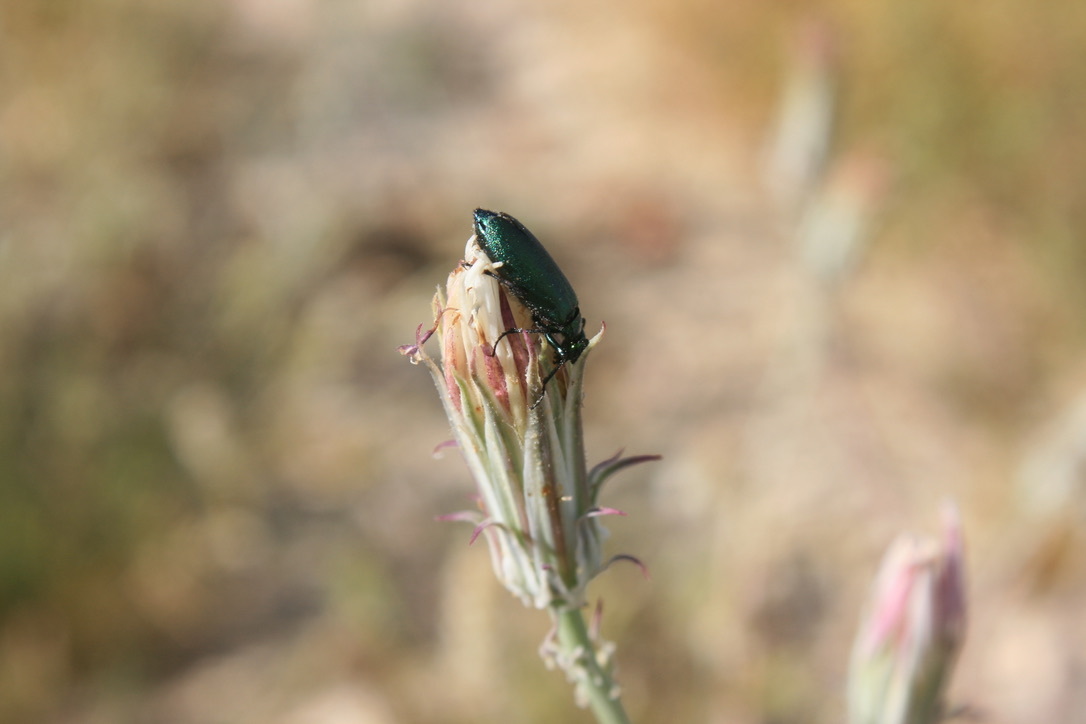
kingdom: Animalia
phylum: Arthropoda
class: Insecta
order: Coleoptera
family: Meloidae
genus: Lytta
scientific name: Lytta stygica
